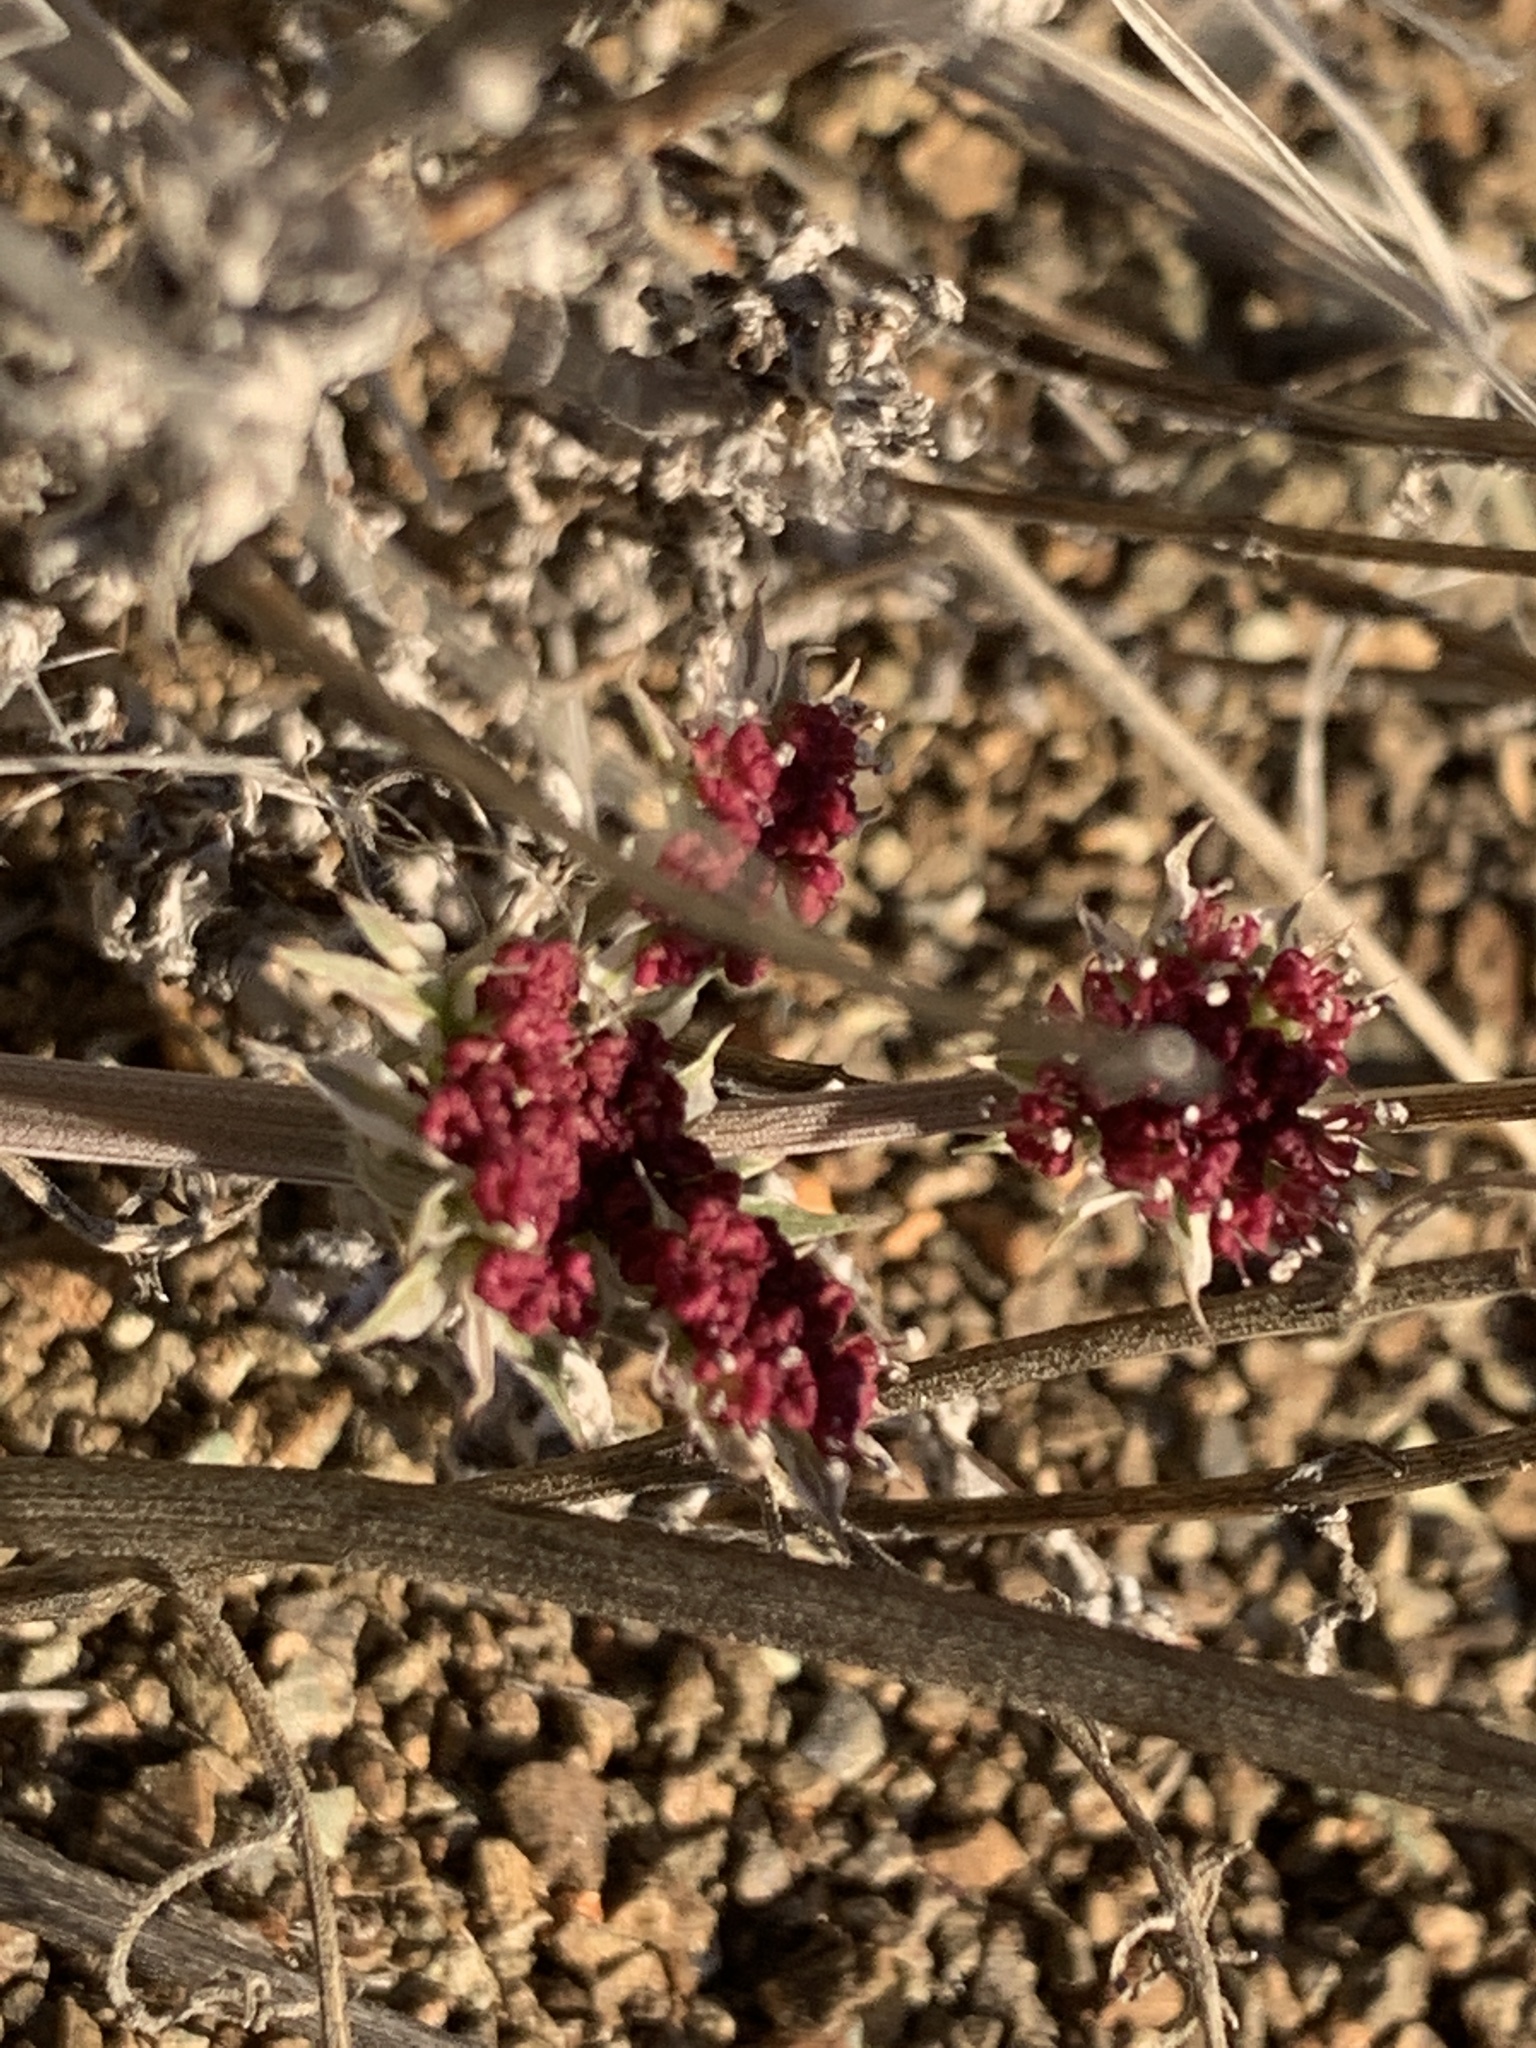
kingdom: Plantae
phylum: Tracheophyta
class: Magnoliopsida
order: Apiales
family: Apiaceae
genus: Lomatium
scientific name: Lomatium hooveri
